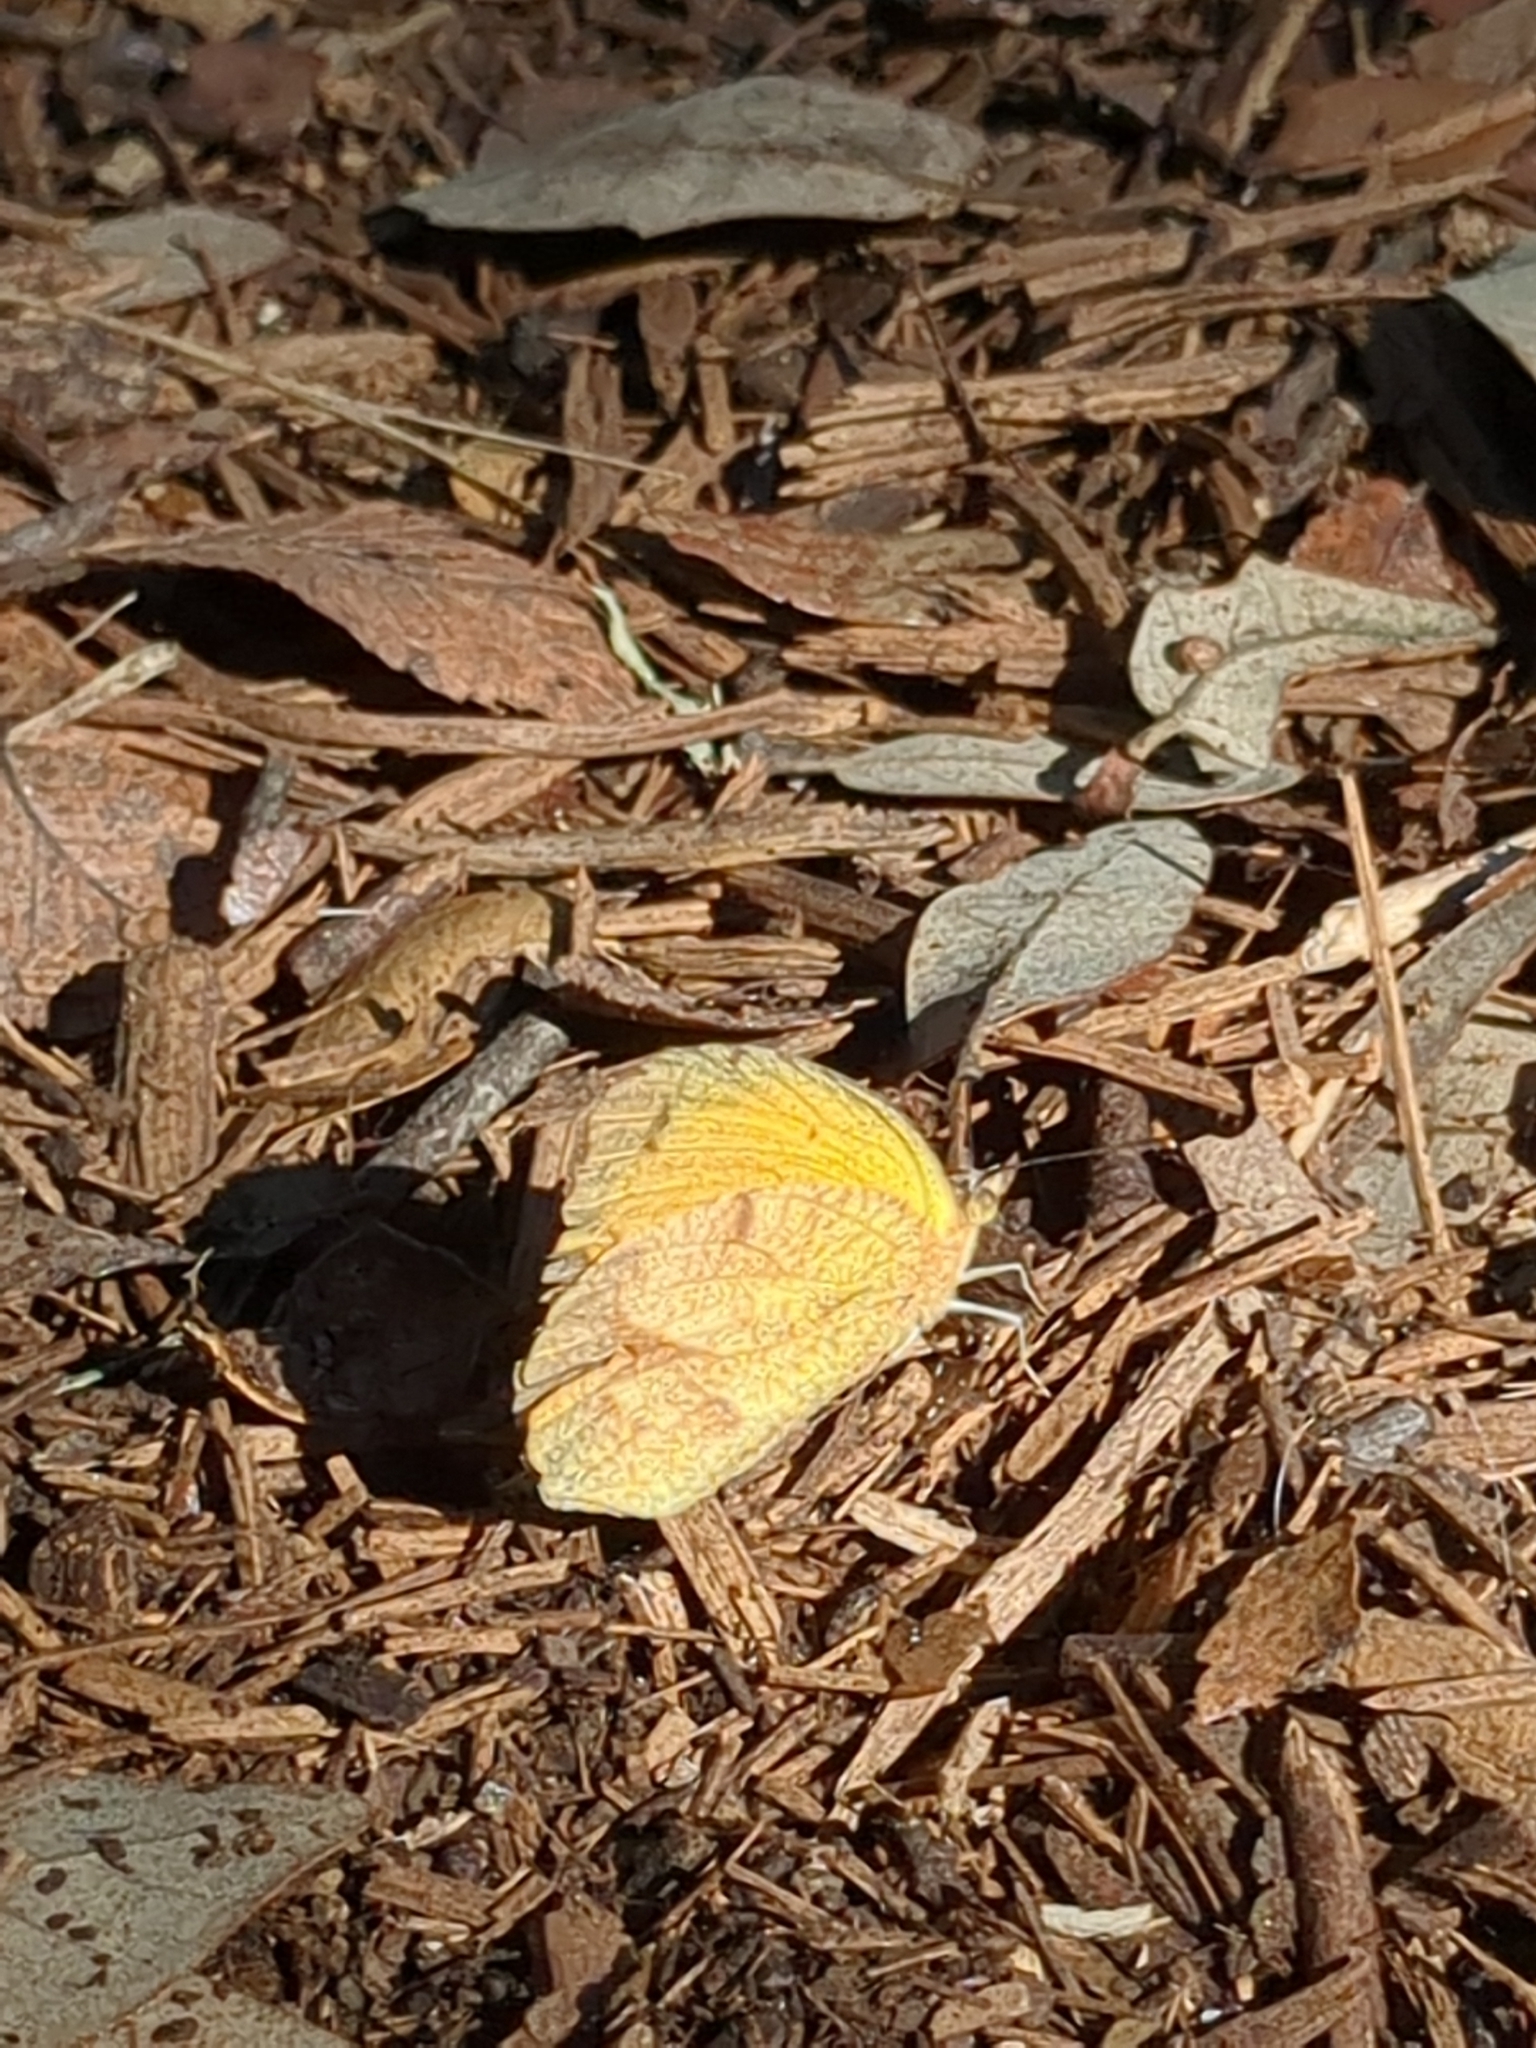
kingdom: Animalia
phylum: Arthropoda
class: Insecta
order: Lepidoptera
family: Pieridae
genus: Abaeis
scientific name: Abaeis nicippe
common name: Sleepy orange
